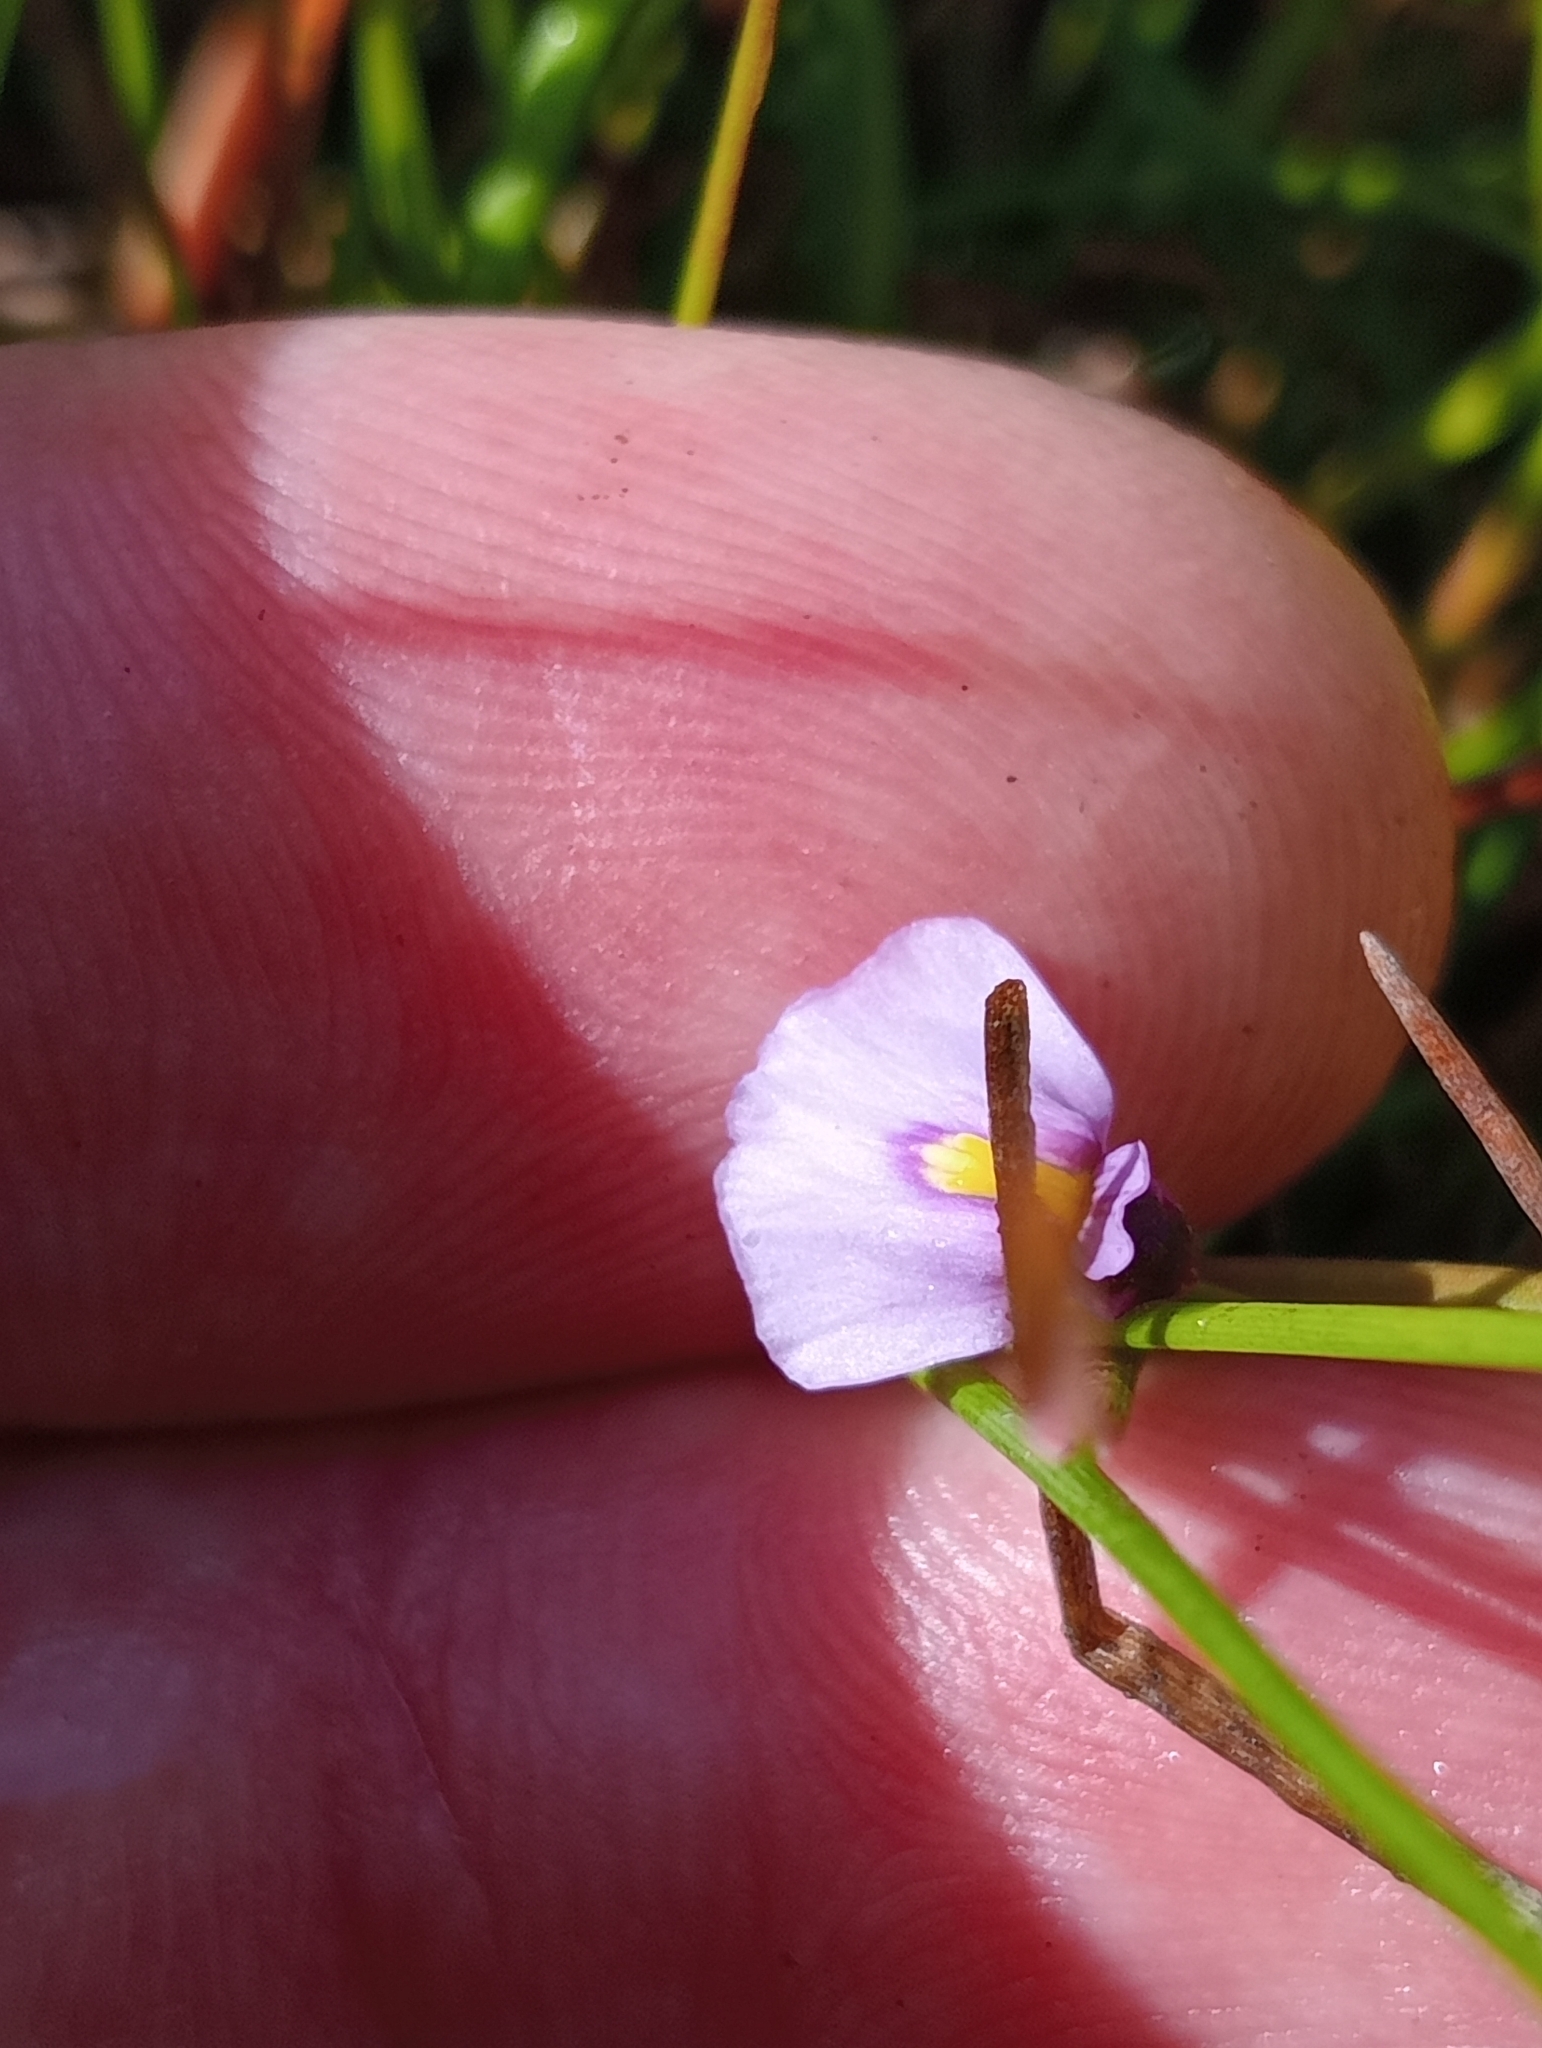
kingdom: Plantae
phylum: Tracheophyta
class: Magnoliopsida
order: Lamiales
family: Lentibulariaceae
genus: Utricularia
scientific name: Utricularia dichotoma
